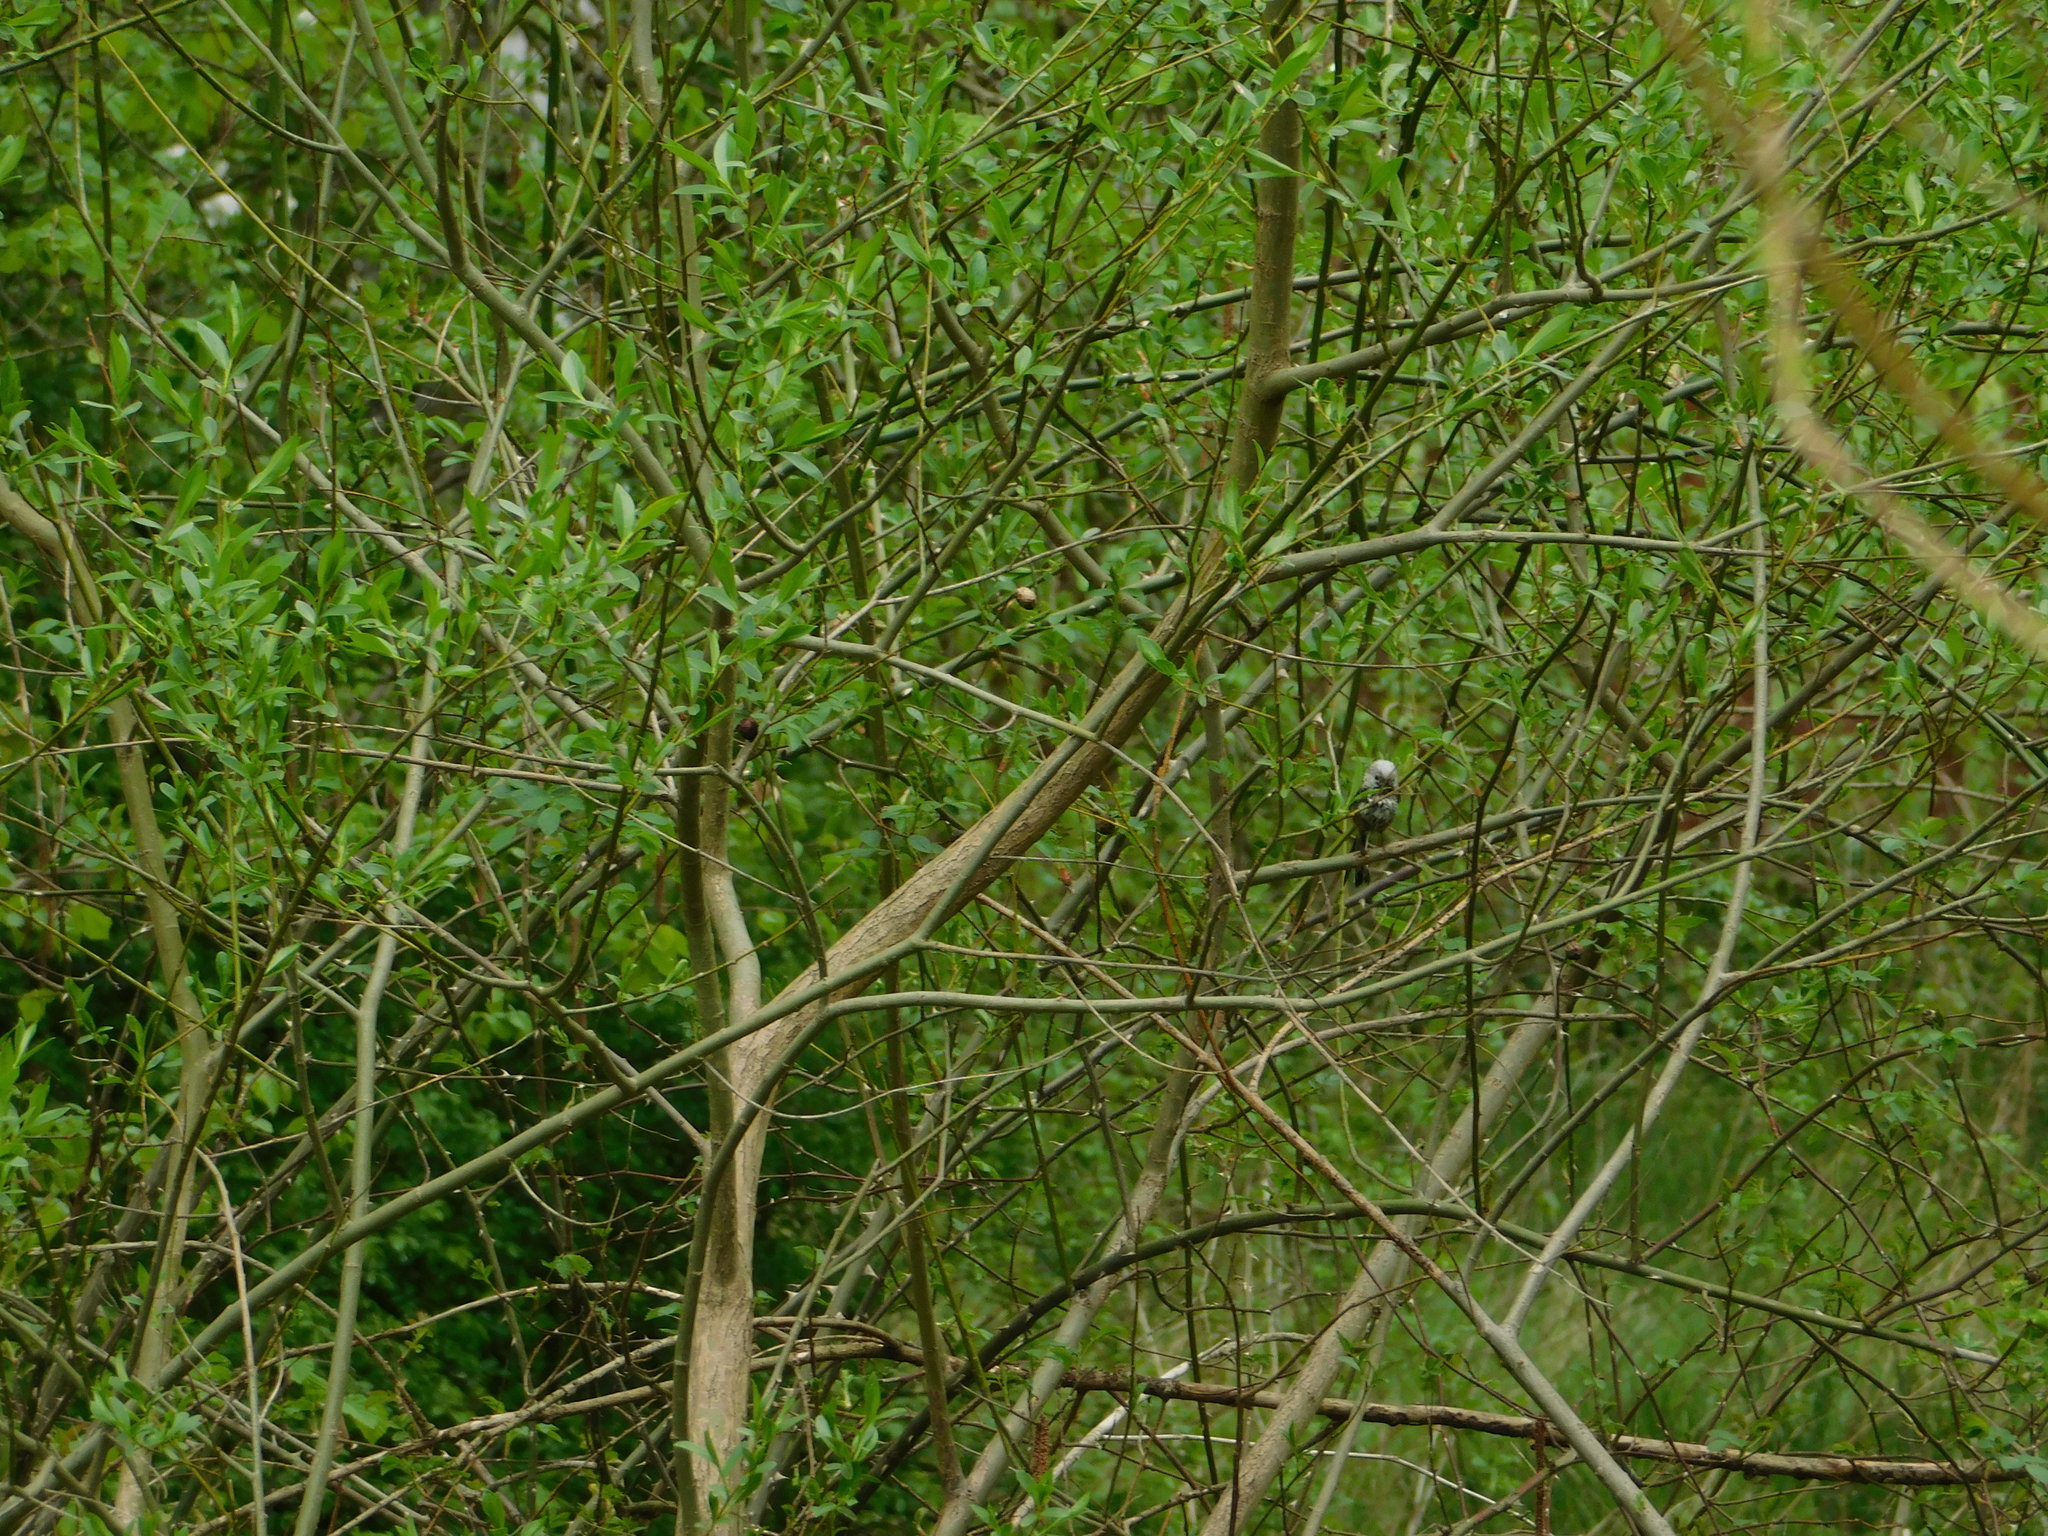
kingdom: Animalia
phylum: Chordata
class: Aves
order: Passeriformes
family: Aegithalidae
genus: Aegithalos
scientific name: Aegithalos caudatus
